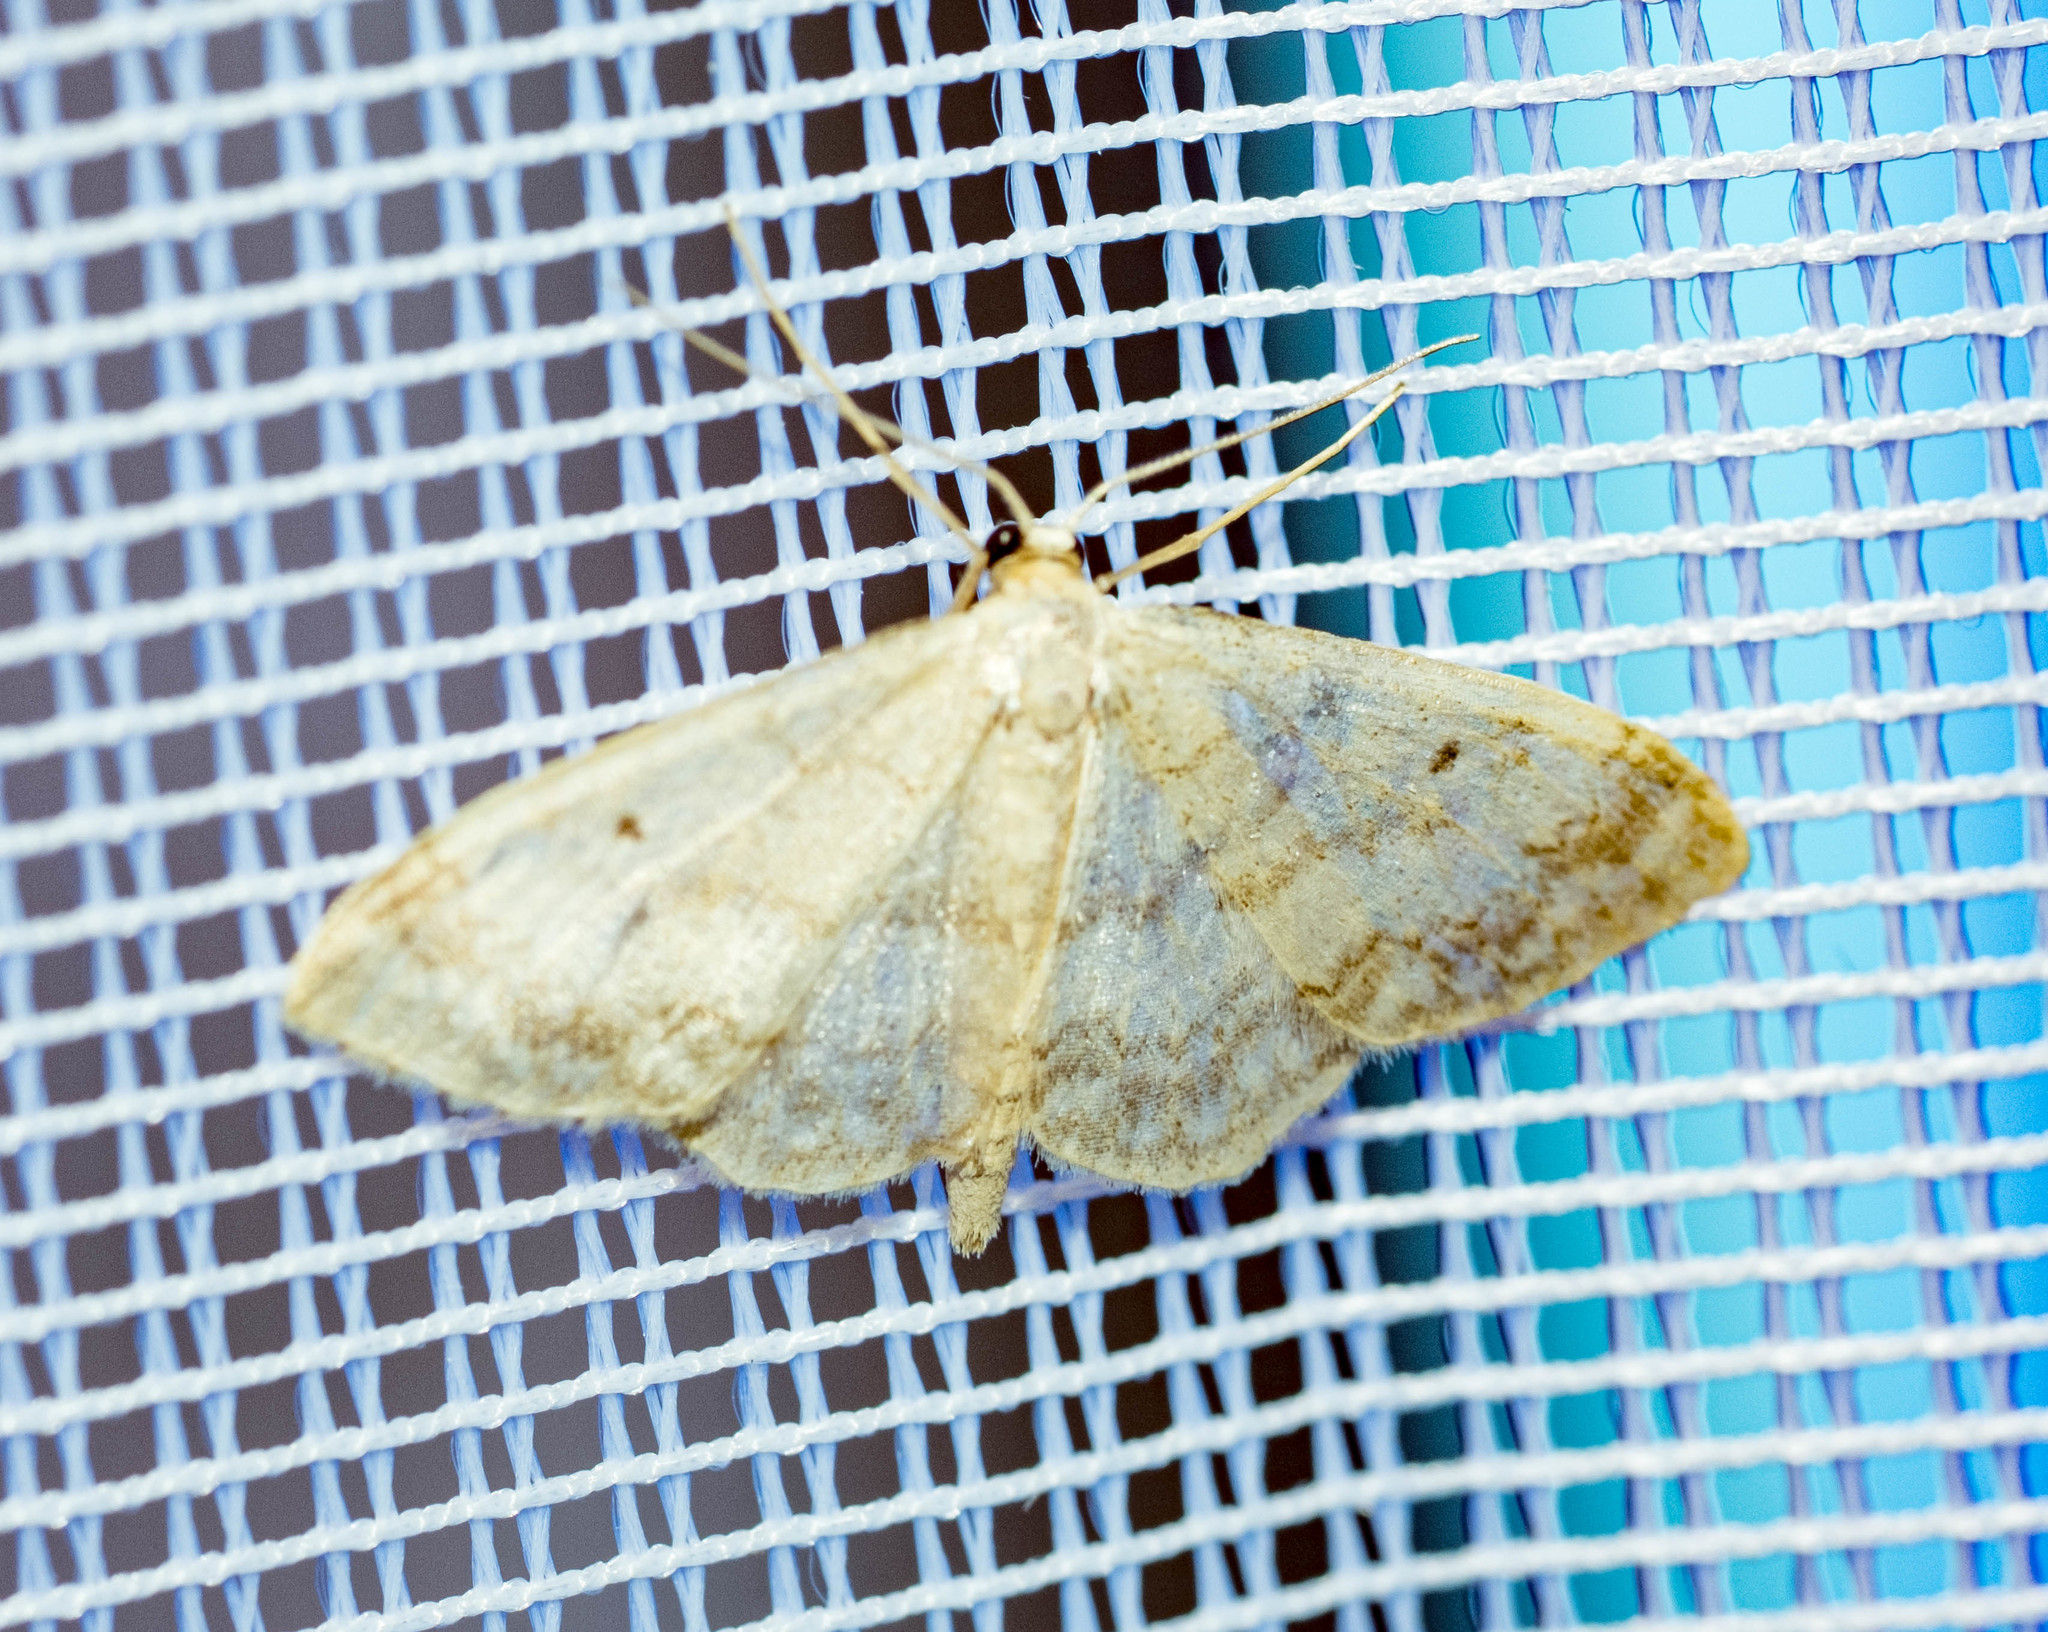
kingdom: Animalia
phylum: Arthropoda
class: Insecta
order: Lepidoptera
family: Geometridae
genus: Idaea
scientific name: Idaea biselata
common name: Small fan-footed wave
